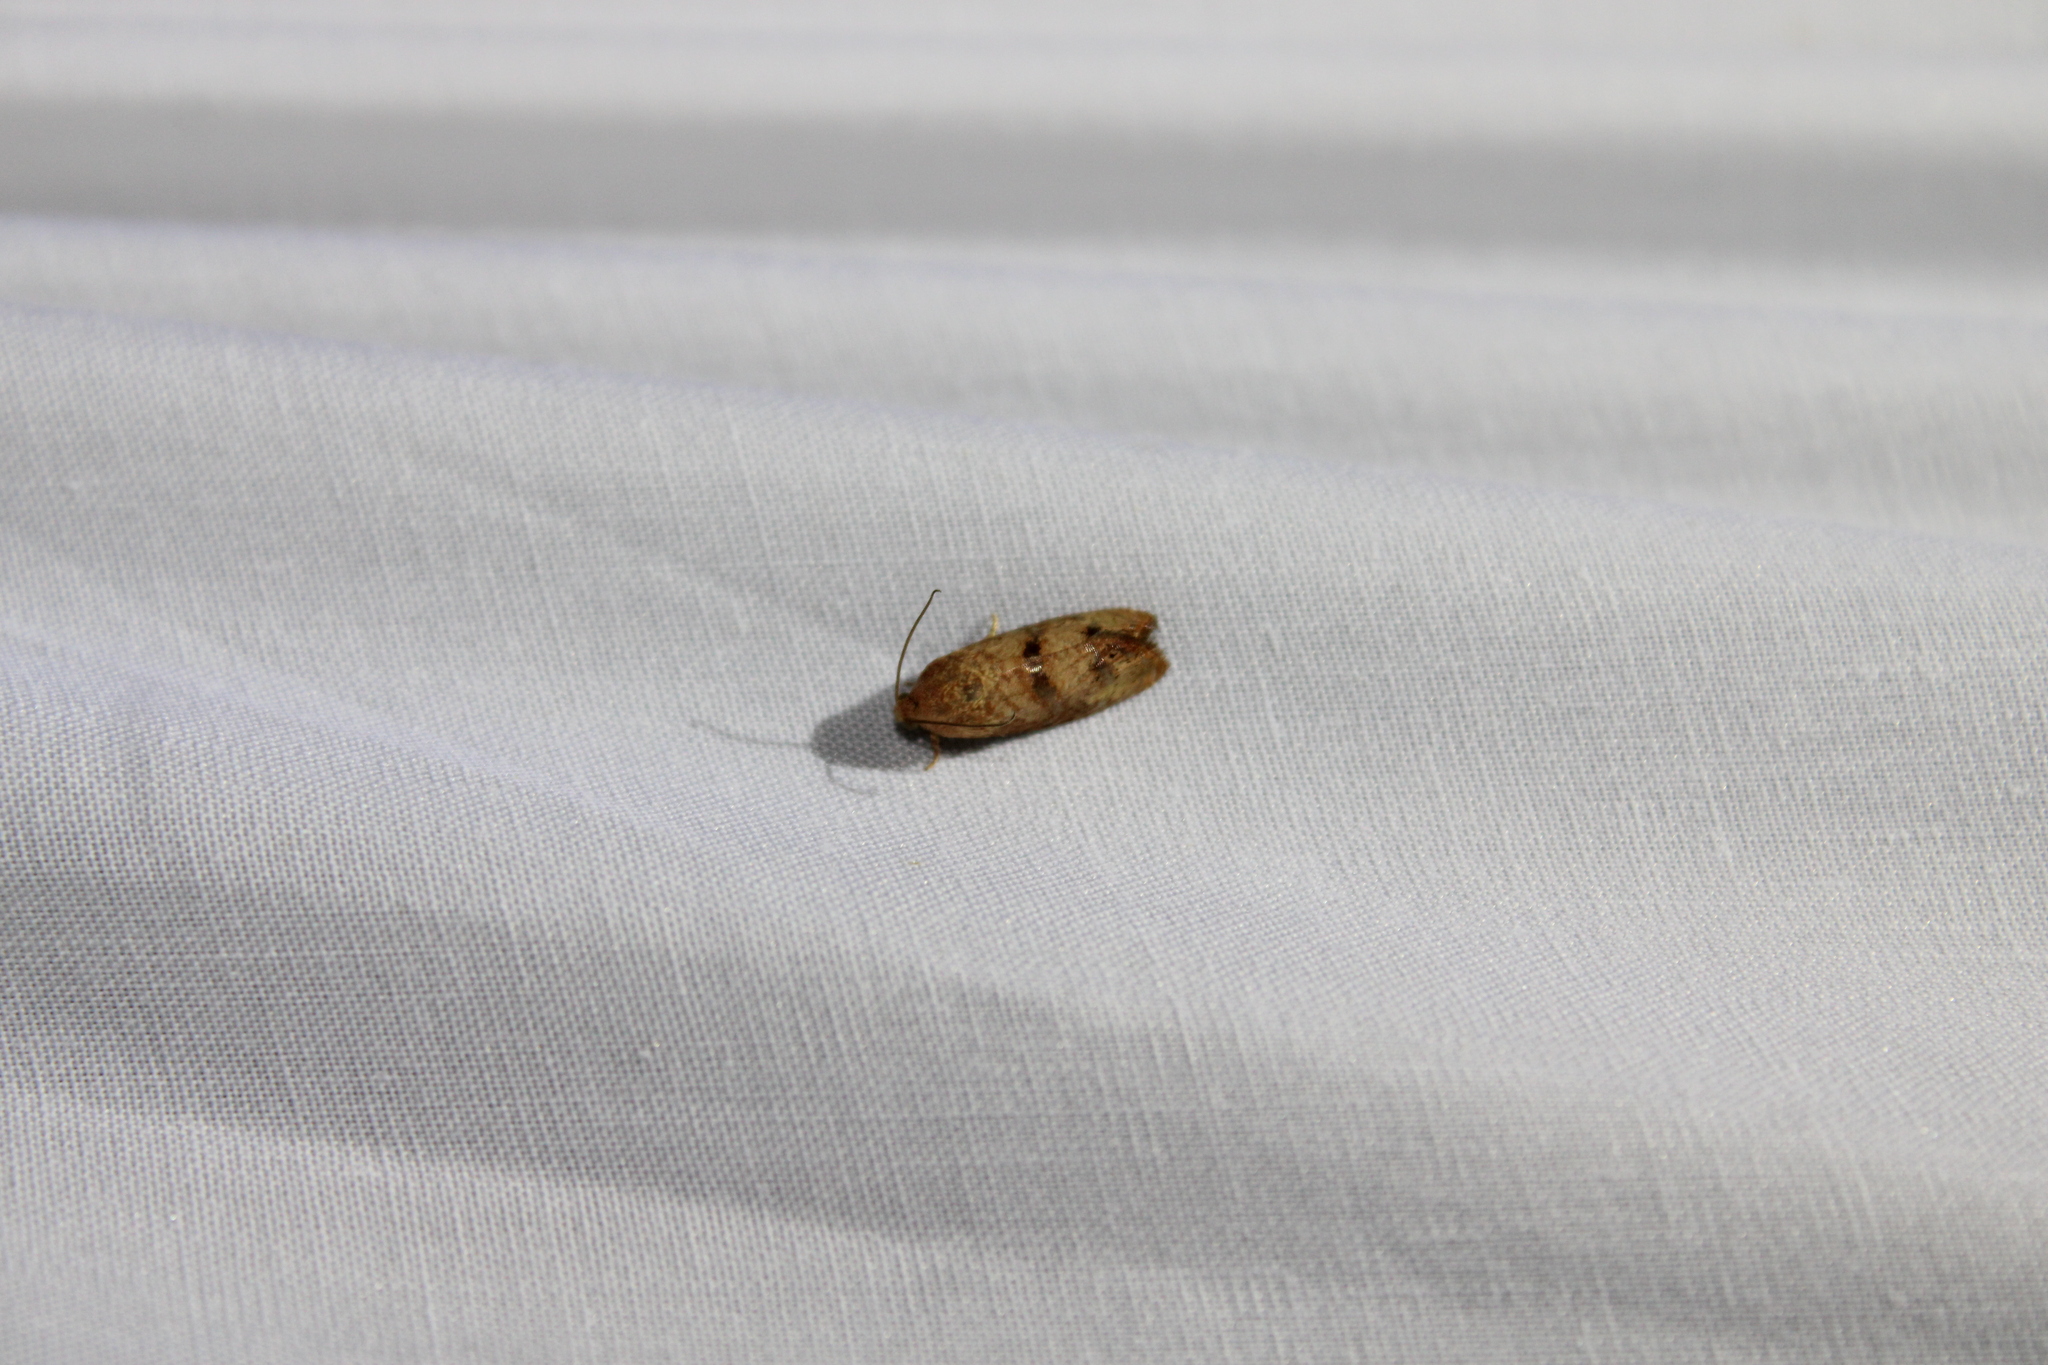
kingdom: Animalia
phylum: Arthropoda
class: Insecta
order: Lepidoptera
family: Tortricidae
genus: Cydia
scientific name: Cydia latiferreana
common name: Filbertworm moth
